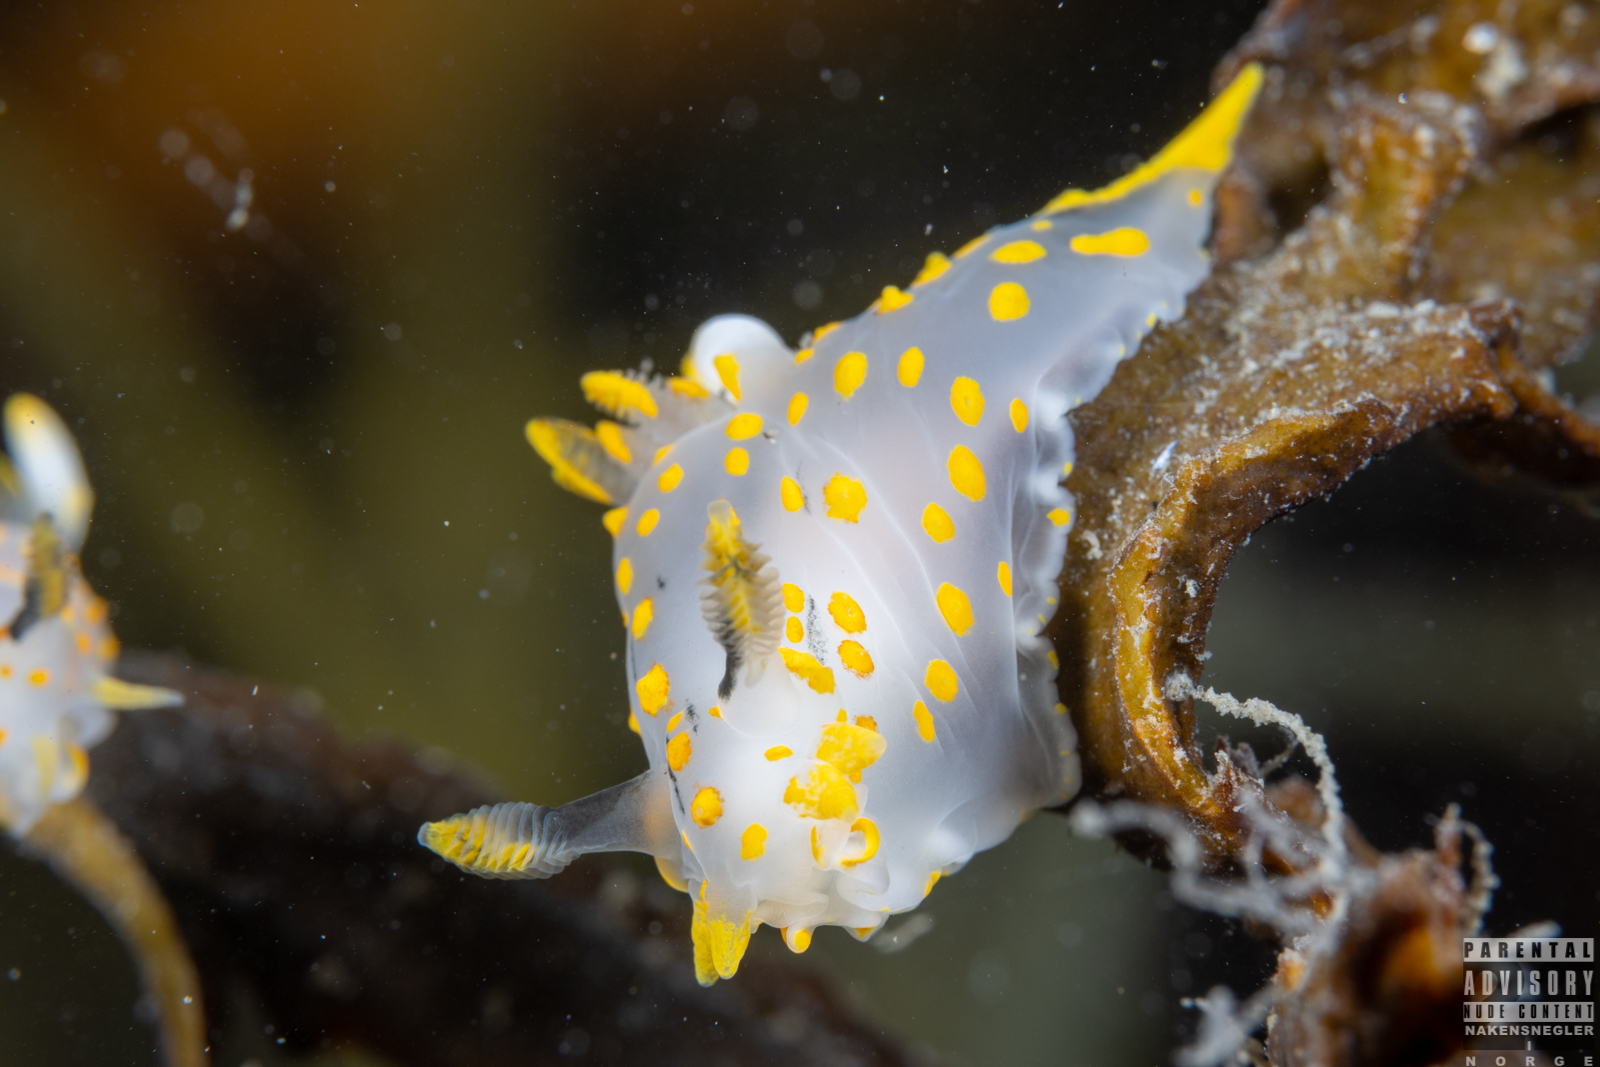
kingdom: Animalia
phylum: Mollusca
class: Gastropoda
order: Nudibranchia
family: Polyceridae
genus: Polycera
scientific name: Polycera quadrilineata
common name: Four-striped polycera
